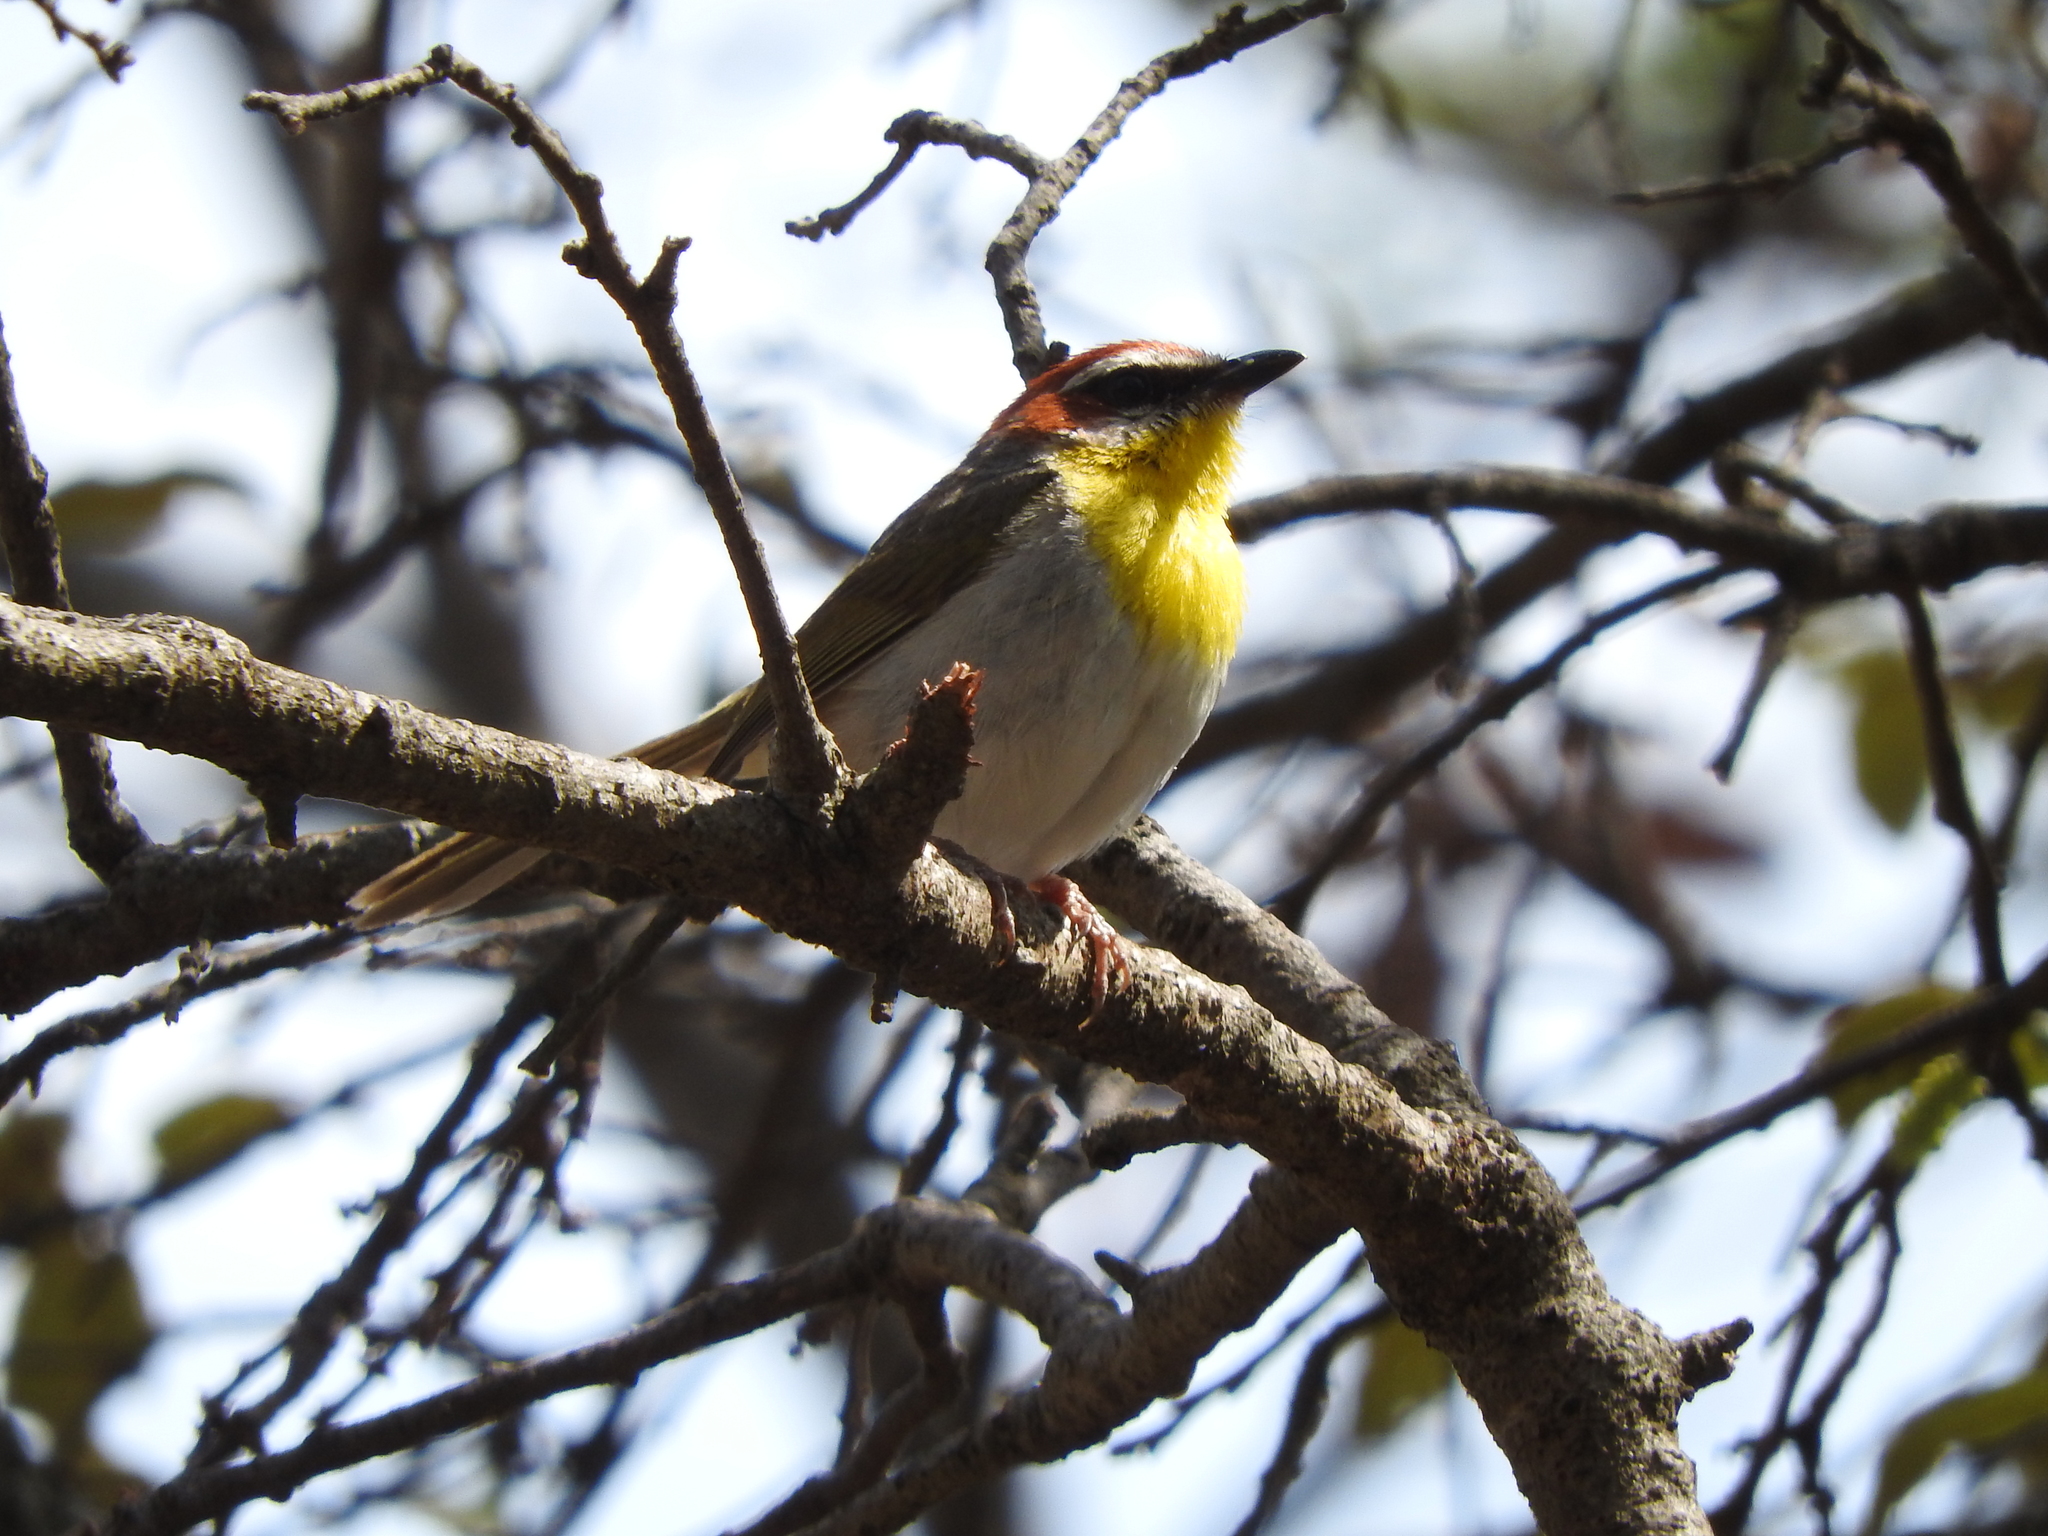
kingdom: Animalia
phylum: Chordata
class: Aves
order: Passeriformes
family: Parulidae
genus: Basileuterus
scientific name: Basileuterus rufifrons
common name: Rufous-capped warbler
